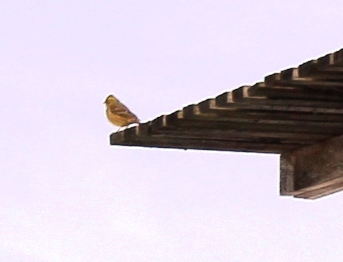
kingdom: Animalia
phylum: Chordata
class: Aves
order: Passeriformes
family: Emberizidae
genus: Emberiza
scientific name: Emberiza citrinella
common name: Yellowhammer
